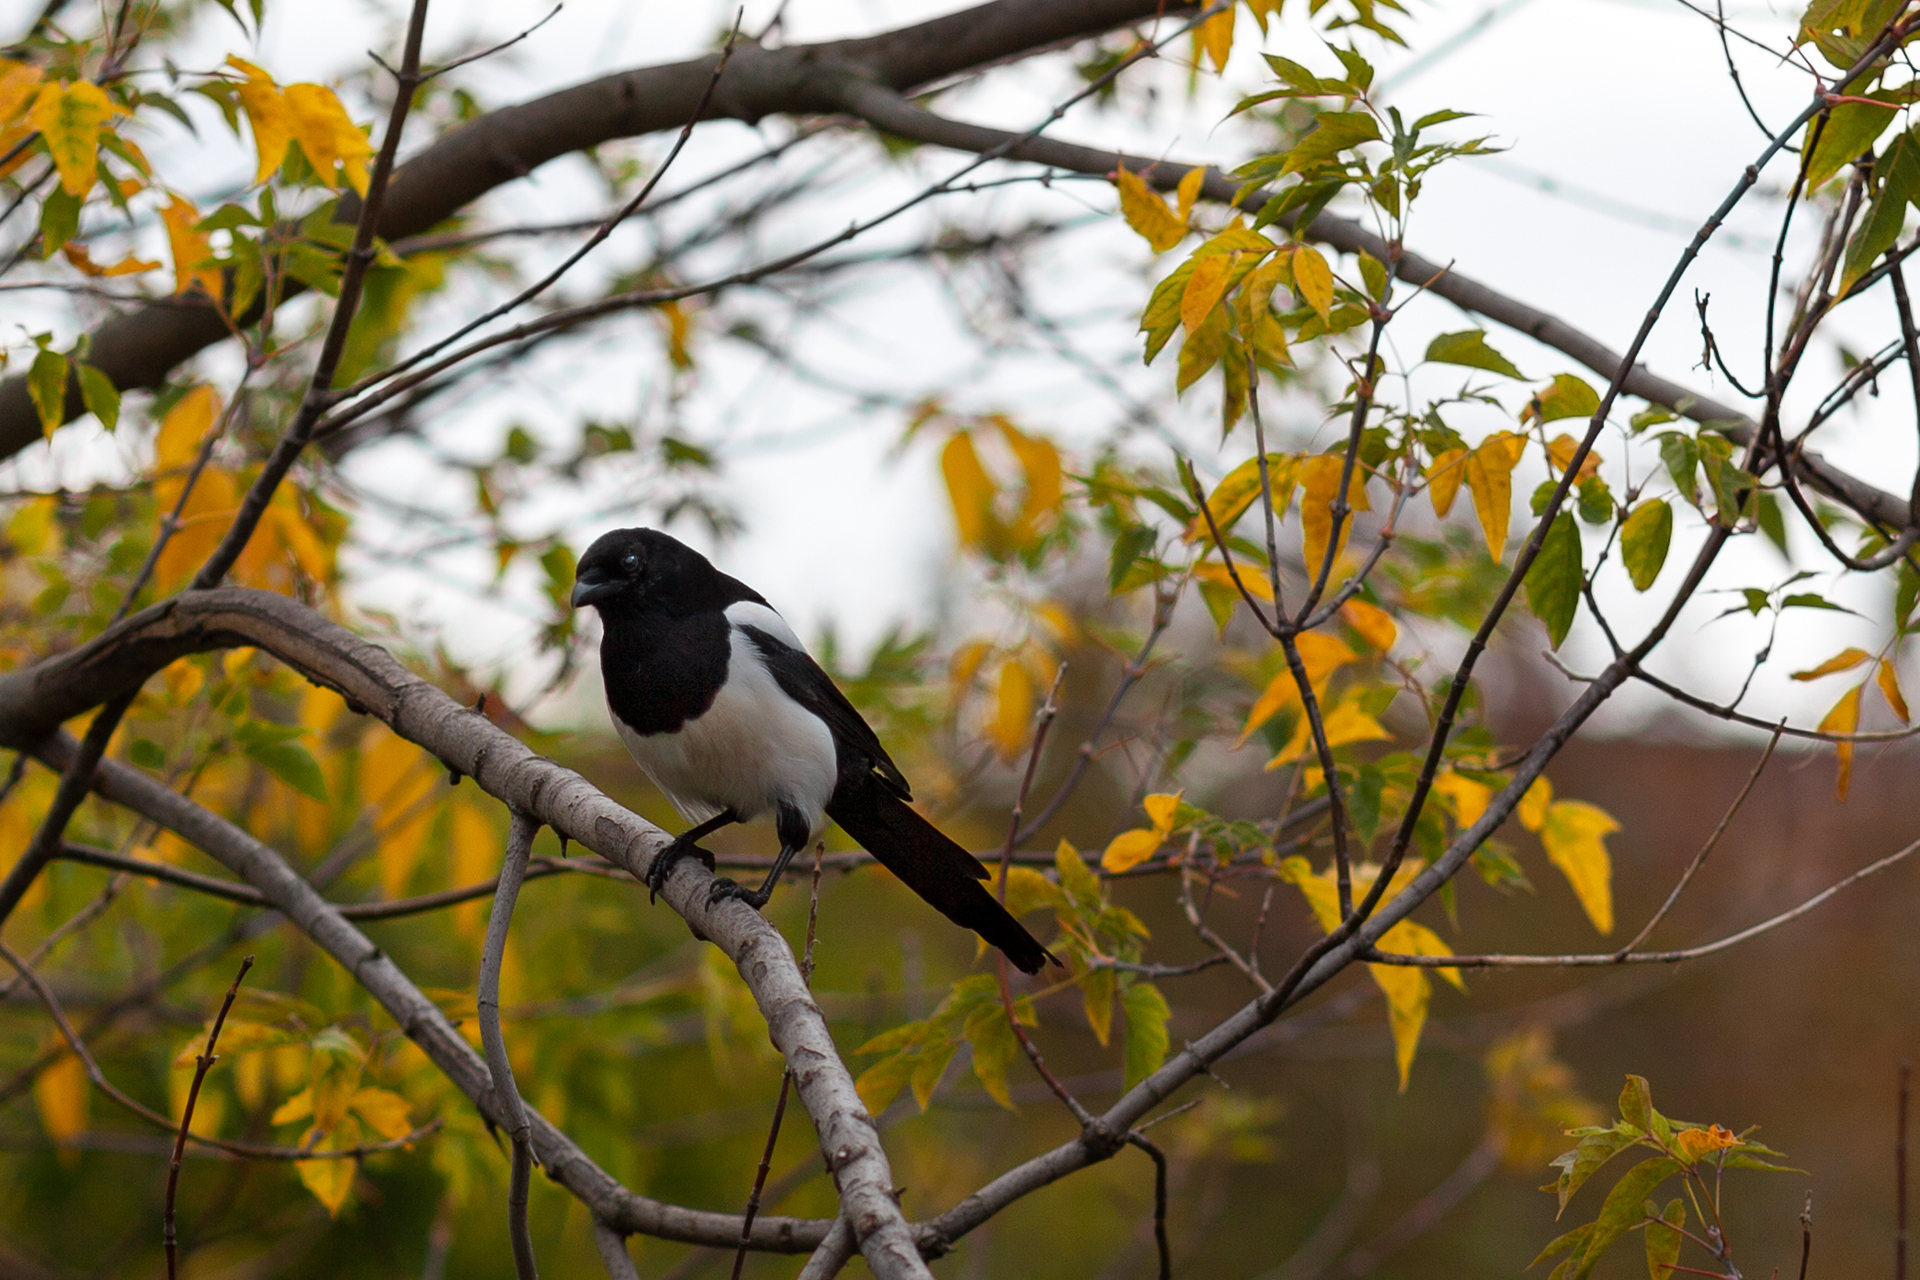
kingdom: Animalia
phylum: Chordata
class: Aves
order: Passeriformes
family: Corvidae
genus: Pica
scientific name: Pica pica
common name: Eurasian magpie
